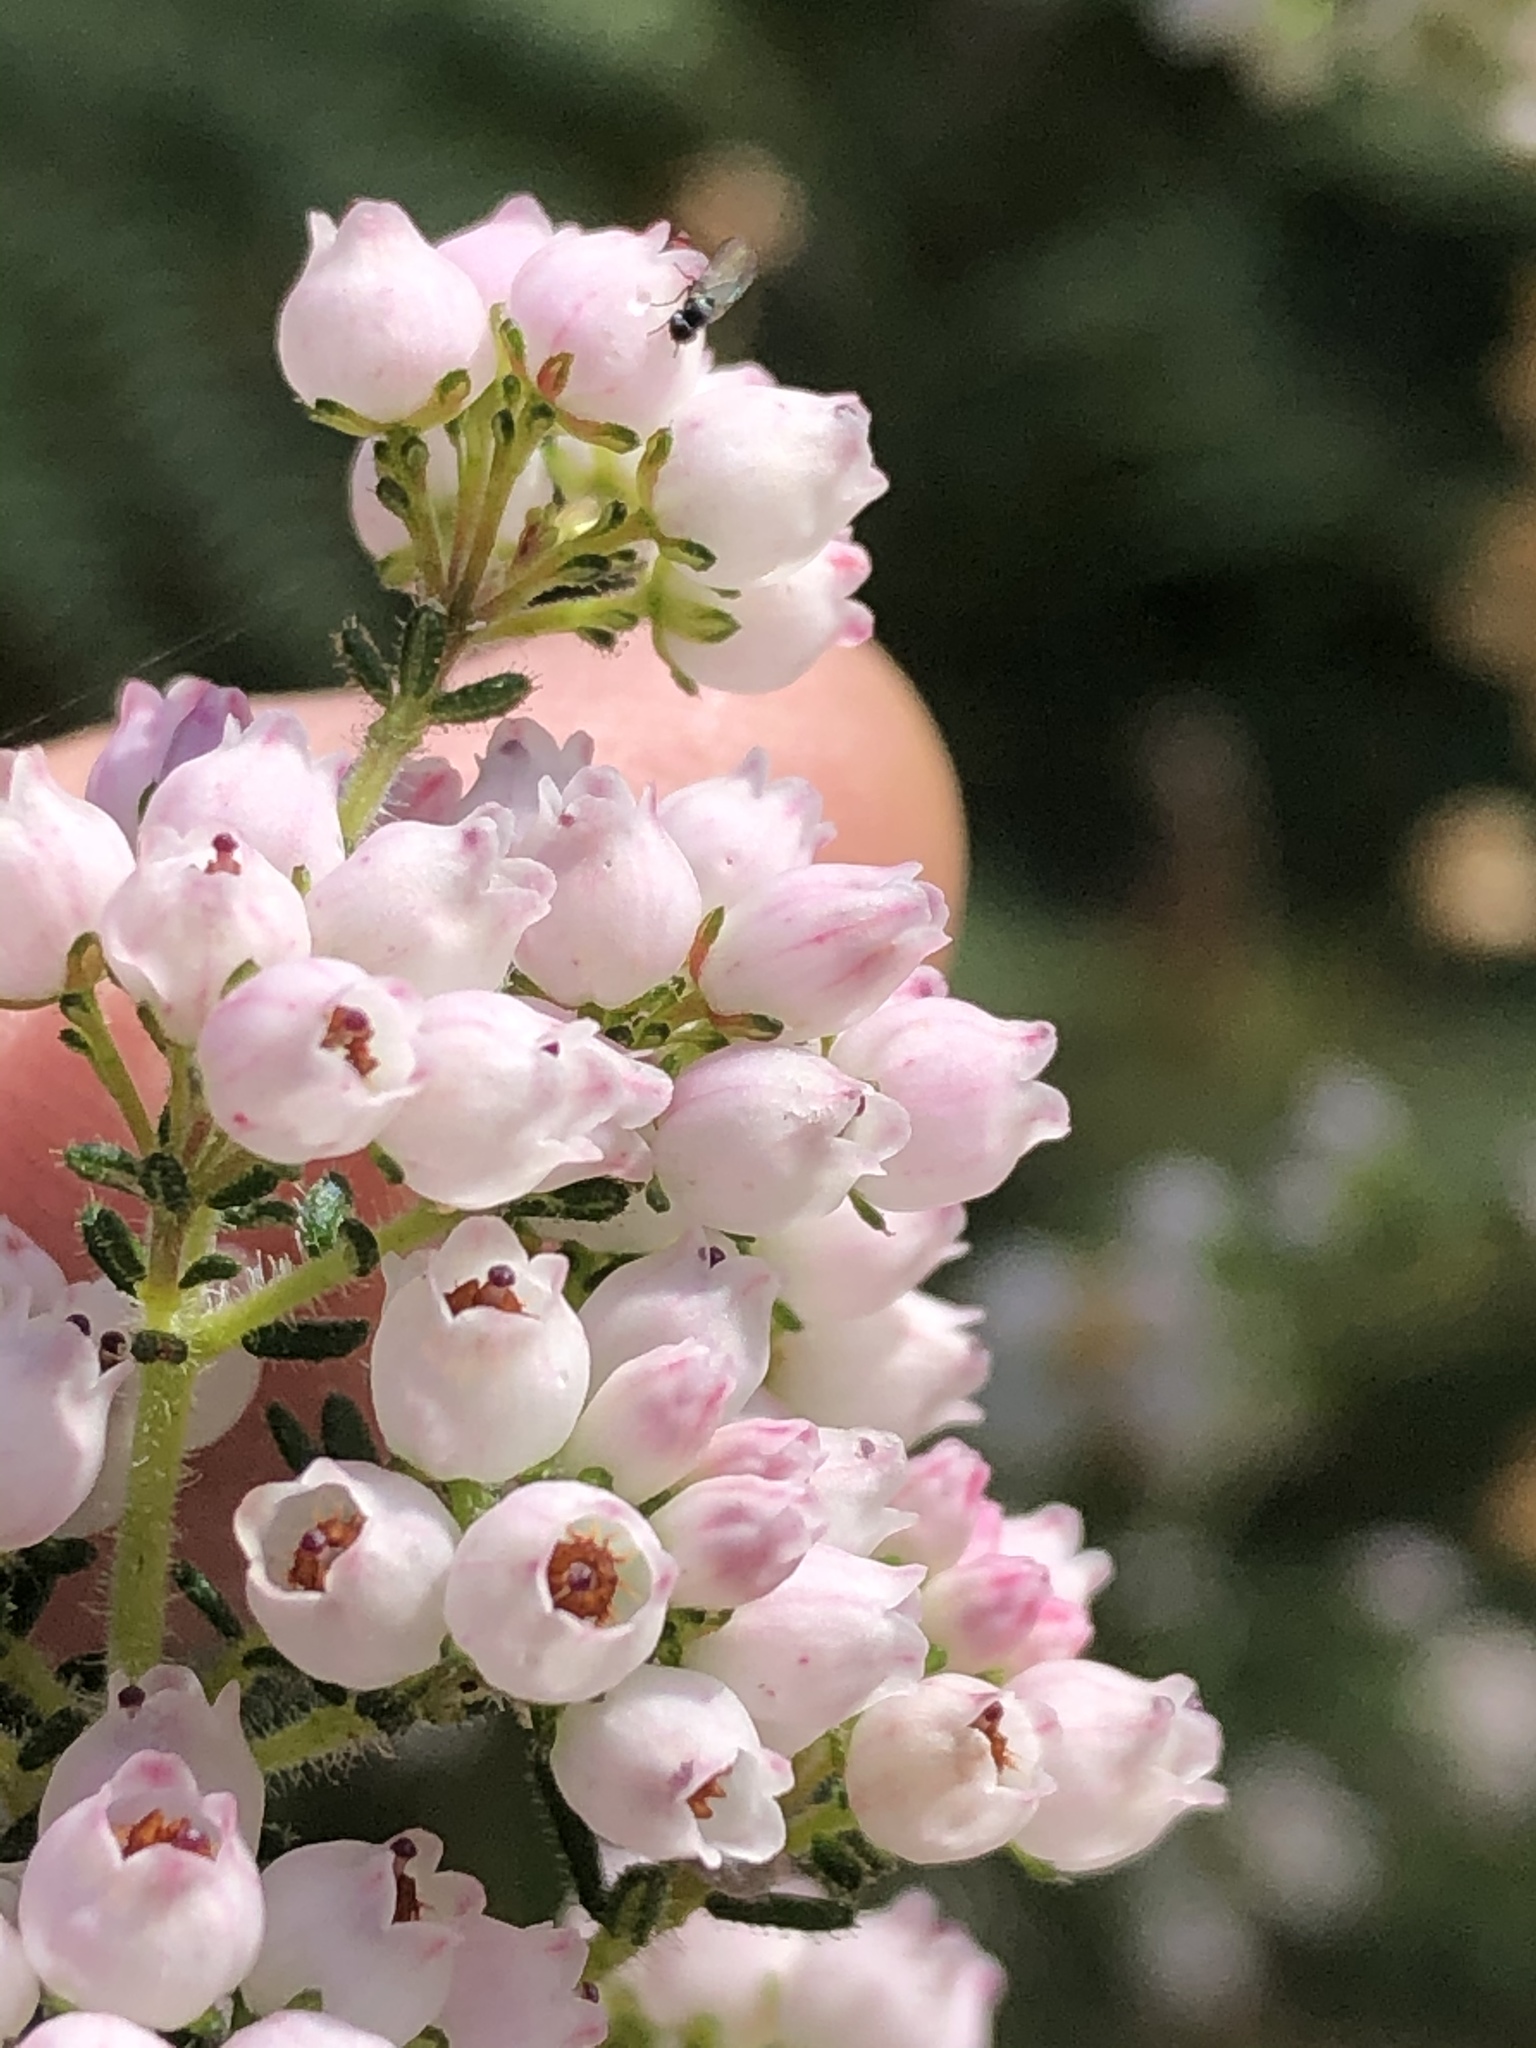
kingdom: Plantae
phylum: Tracheophyta
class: Magnoliopsida
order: Ericales
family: Ericaceae
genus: Erica
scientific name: Erica scabriuscula
